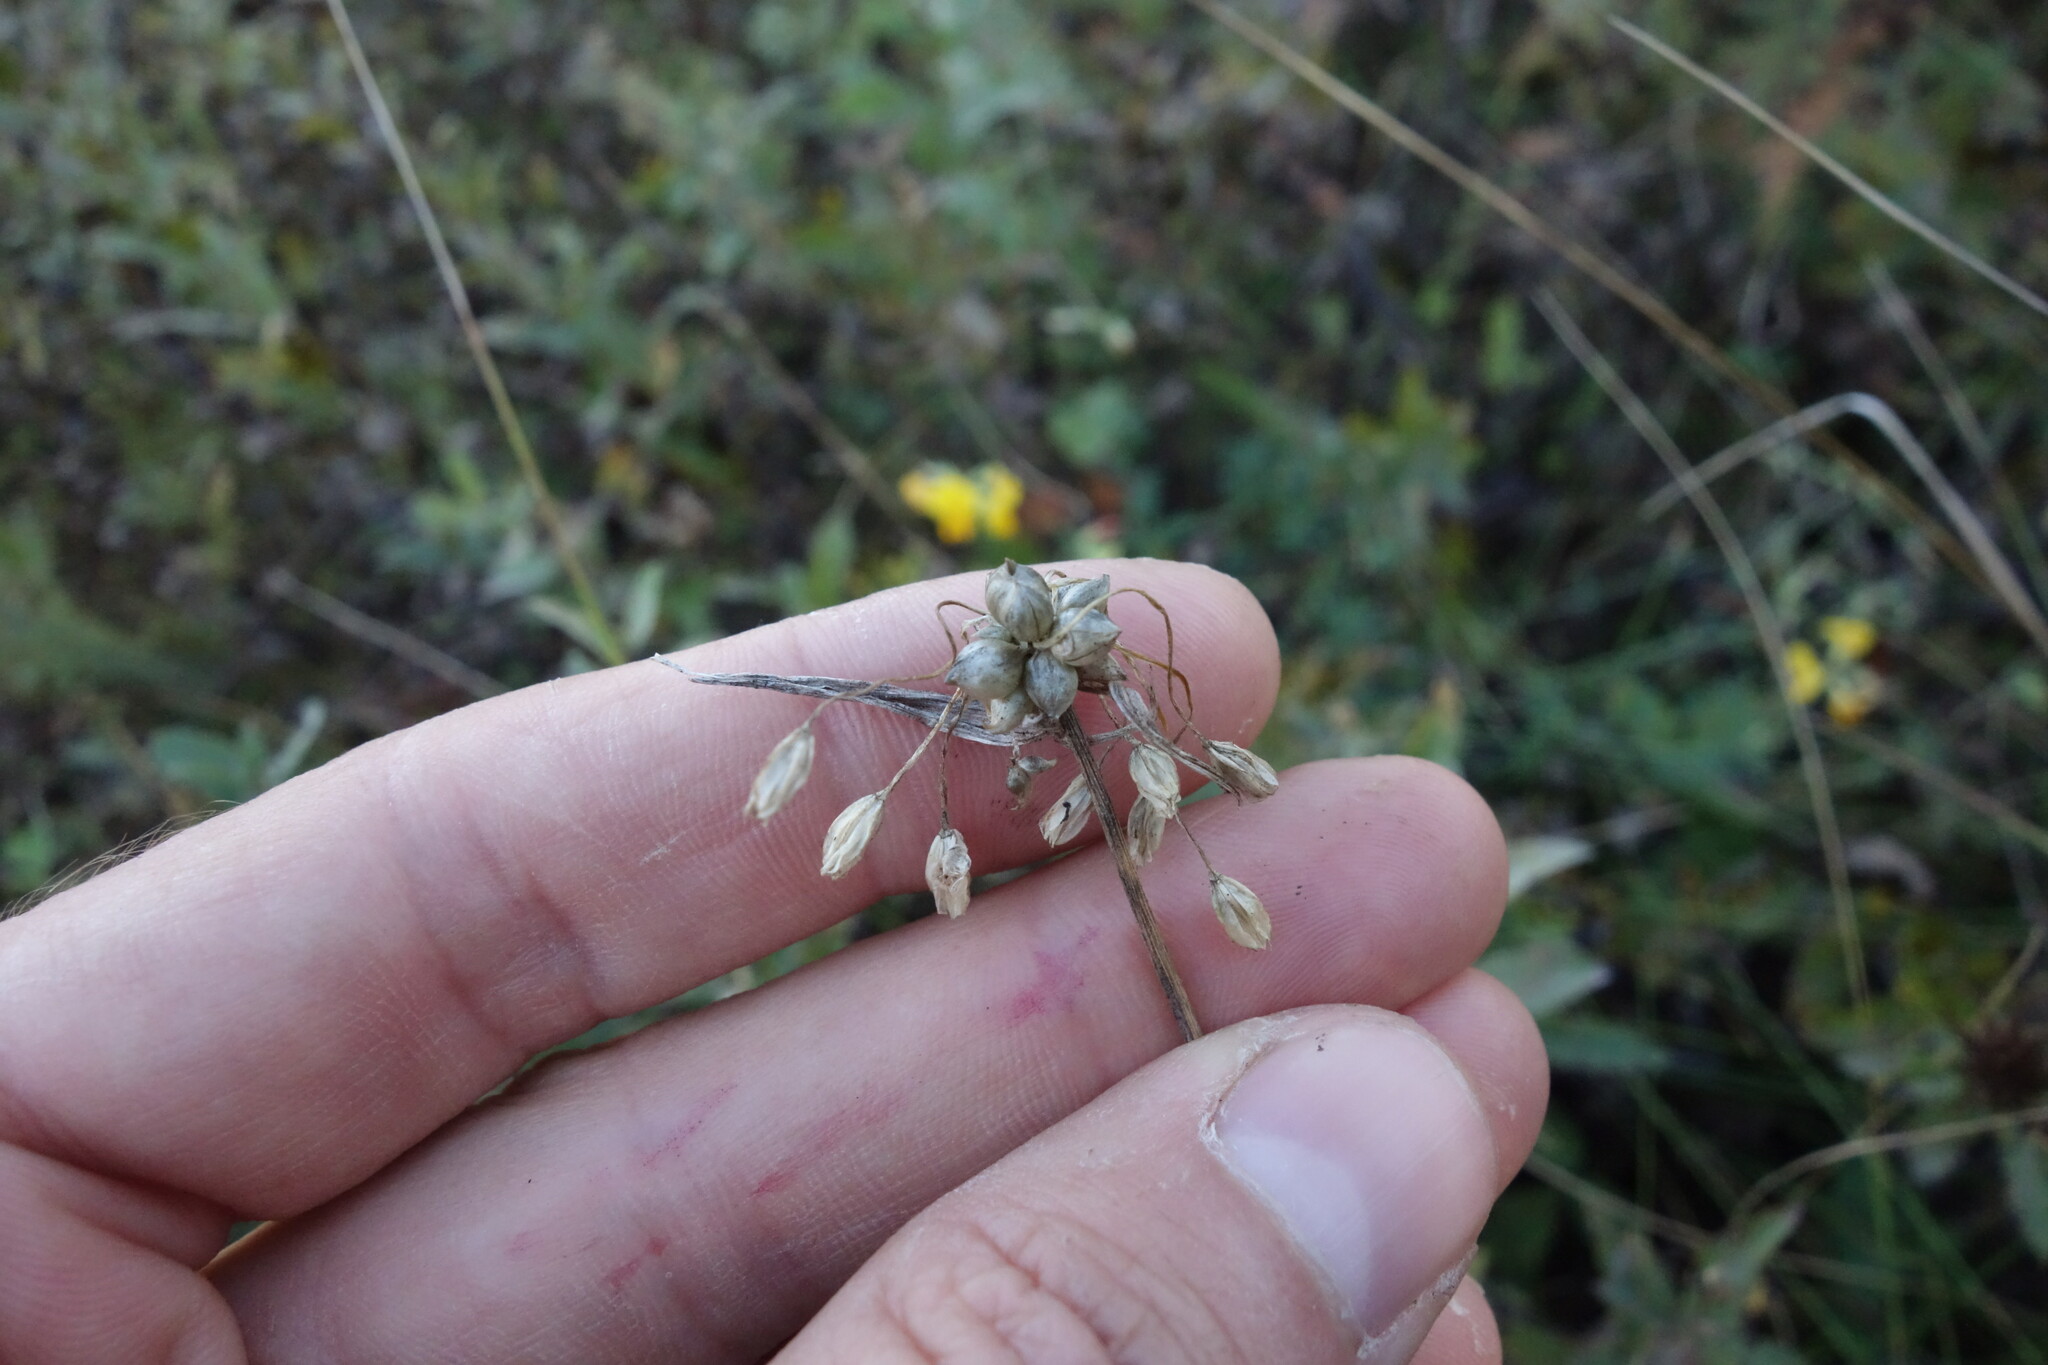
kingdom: Plantae
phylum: Tracheophyta
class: Liliopsida
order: Asparagales
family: Amaryllidaceae
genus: Allium
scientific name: Allium oleraceum
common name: Field garlic
